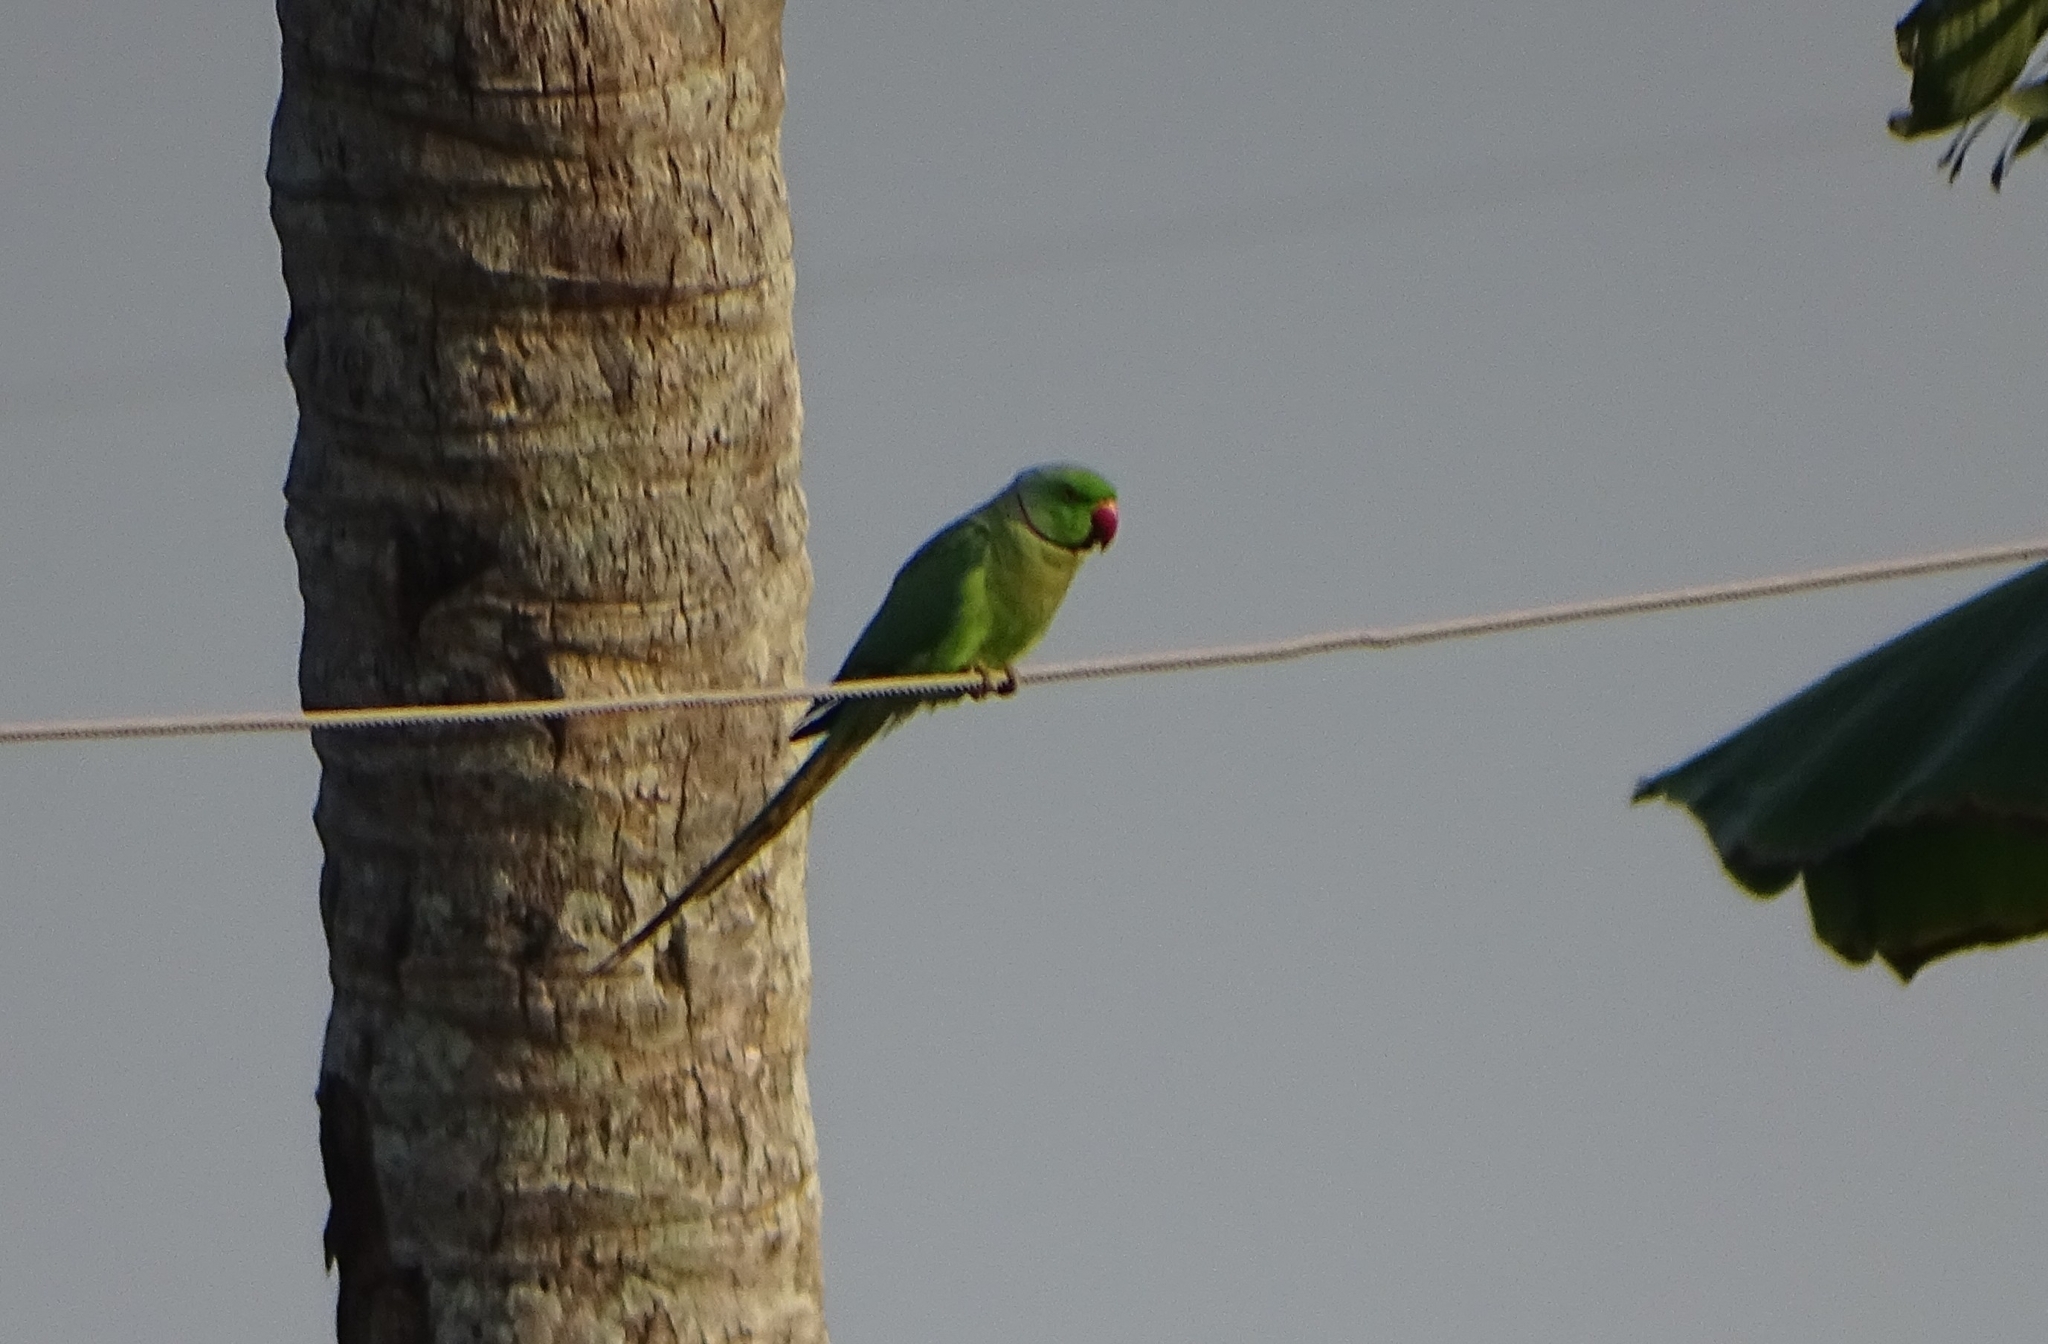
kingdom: Animalia
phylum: Chordata
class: Aves
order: Psittaciformes
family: Psittacidae
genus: Psittacula
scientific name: Psittacula krameri
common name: Rose-ringed parakeet
